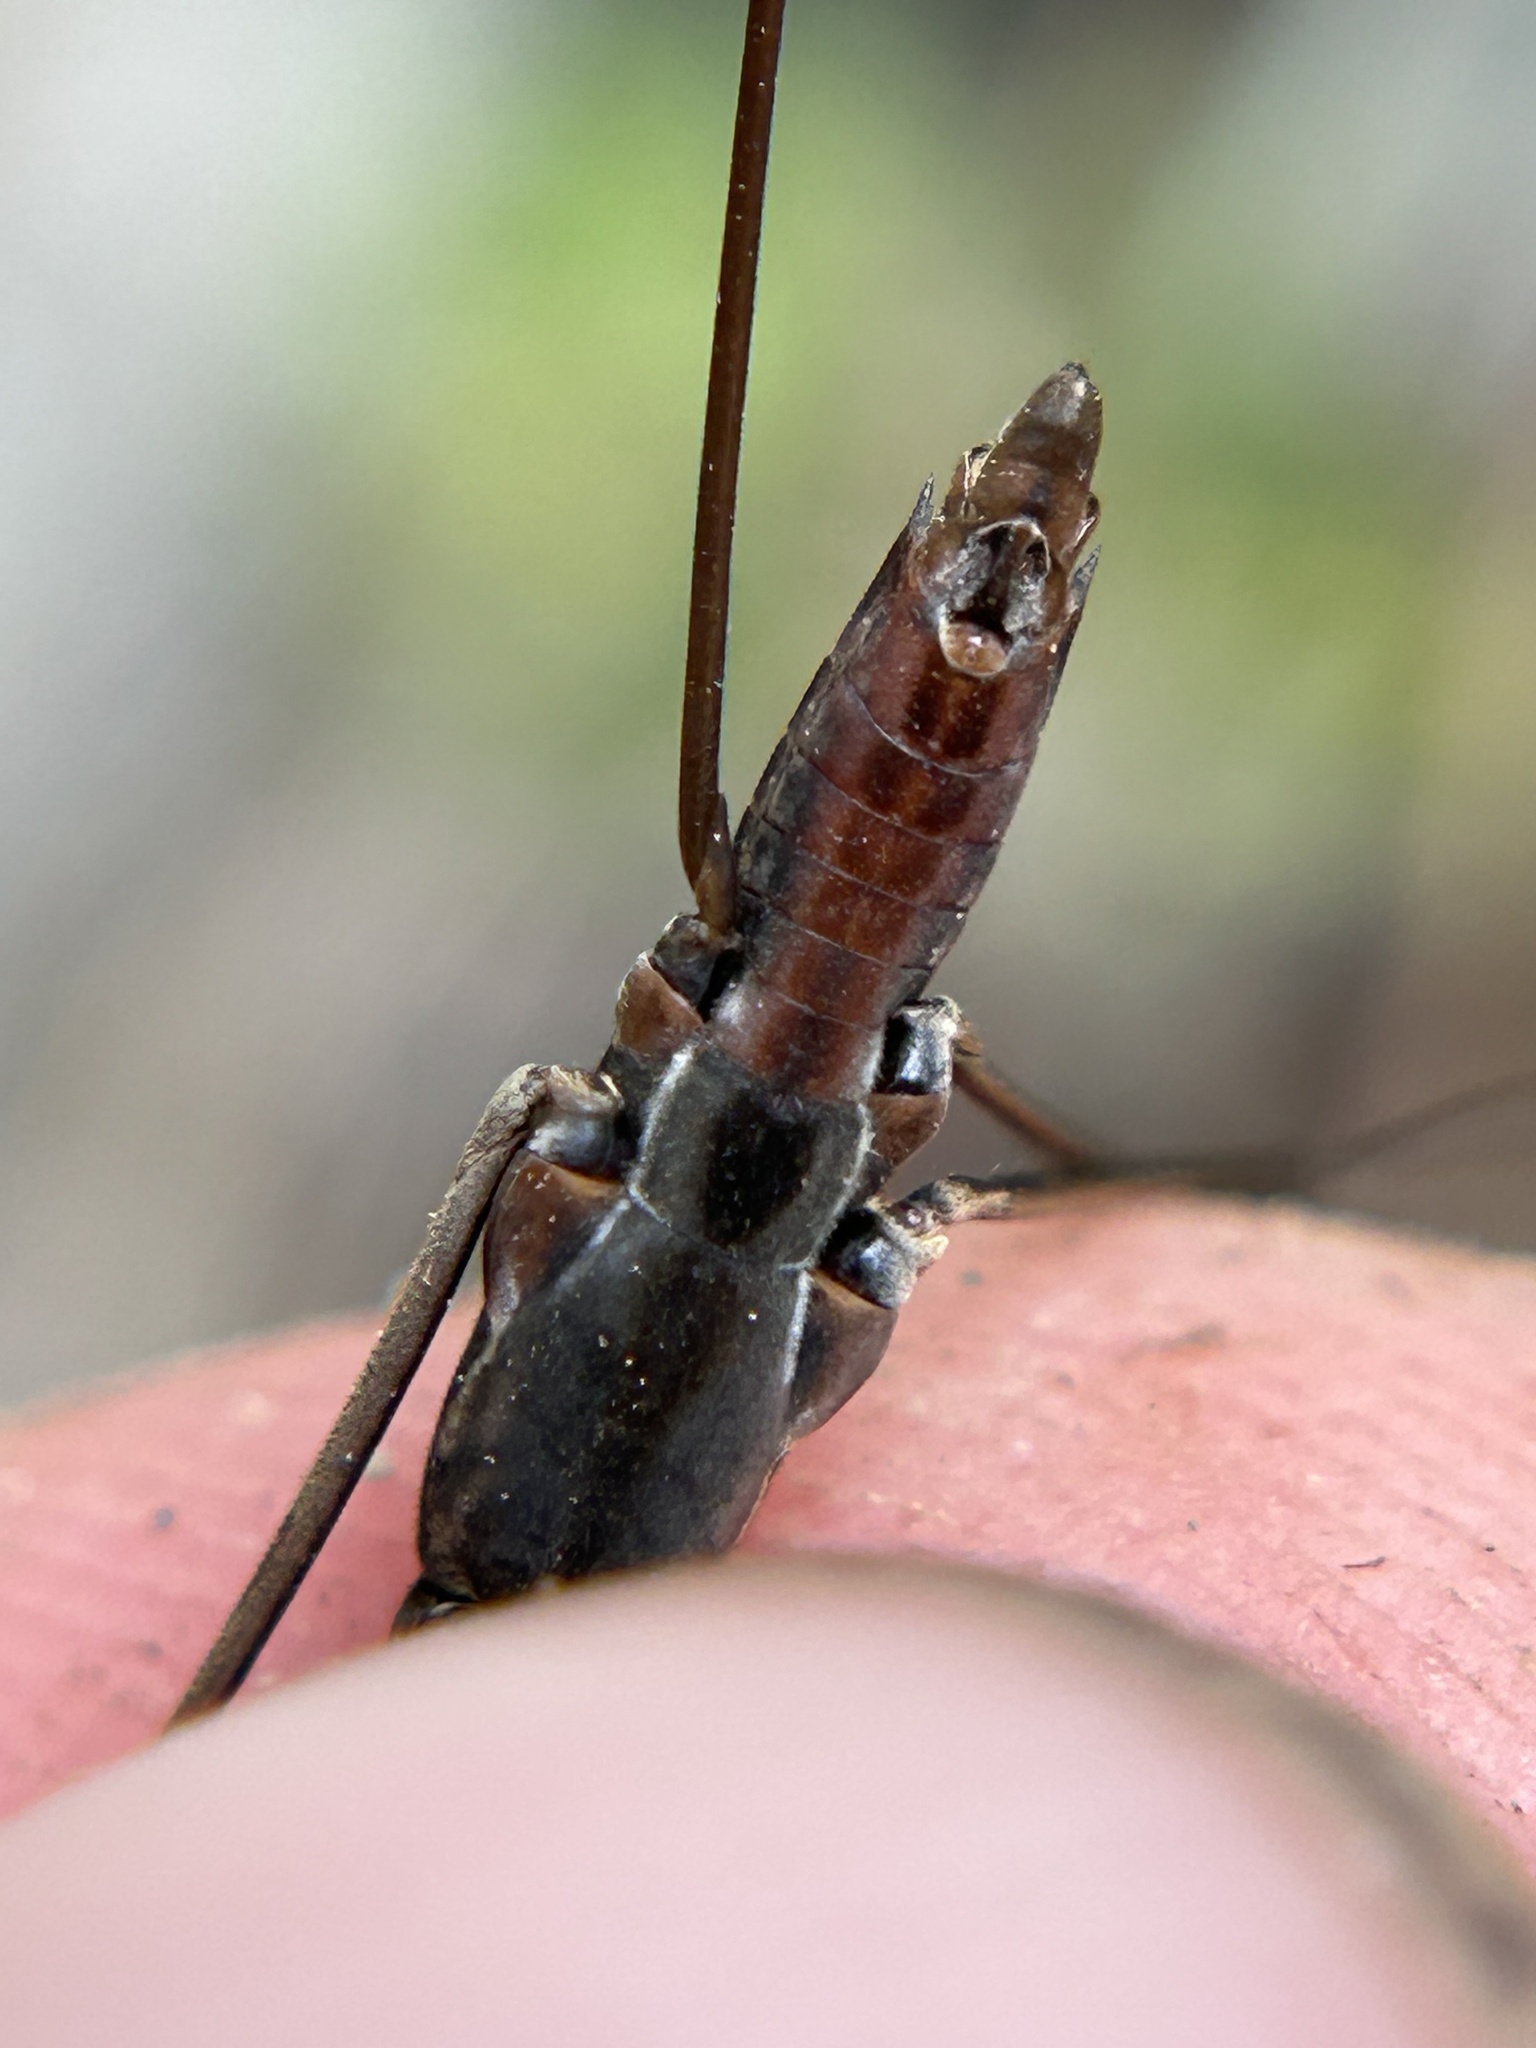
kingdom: Animalia
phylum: Arthropoda
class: Insecta
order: Hemiptera
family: Gerridae
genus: Aquarius
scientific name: Aquarius remigis
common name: Common water strider
